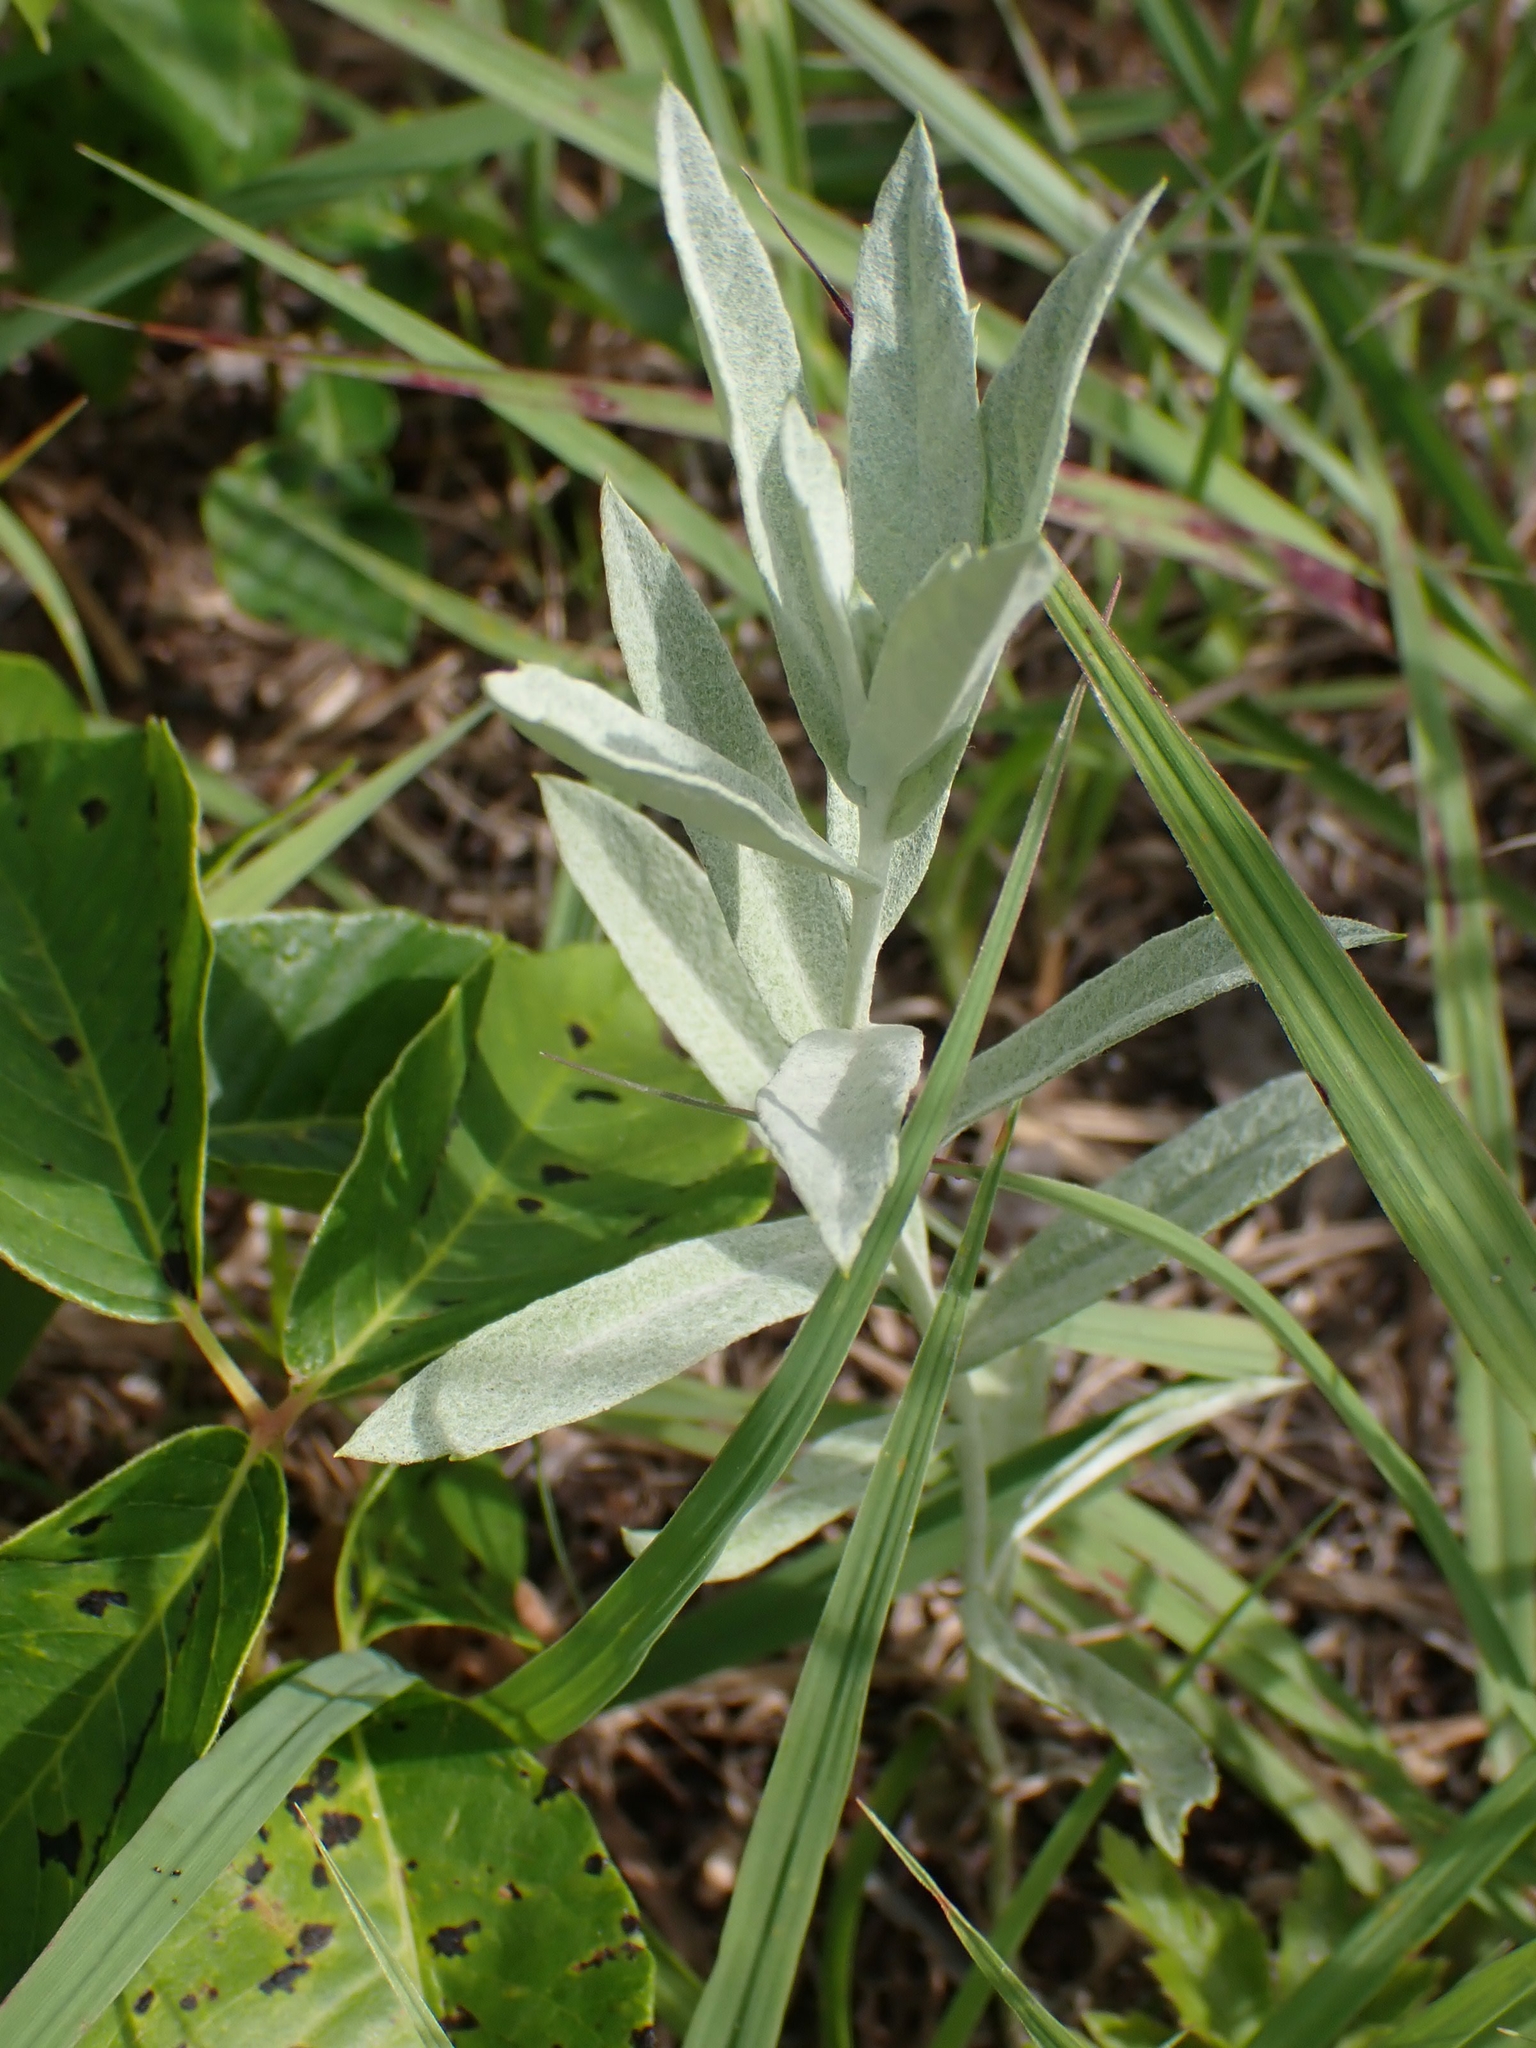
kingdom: Plantae
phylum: Tracheophyta
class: Magnoliopsida
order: Asterales
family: Asteraceae
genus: Artemisia
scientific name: Artemisia ludoviciana
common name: Western mugwort
